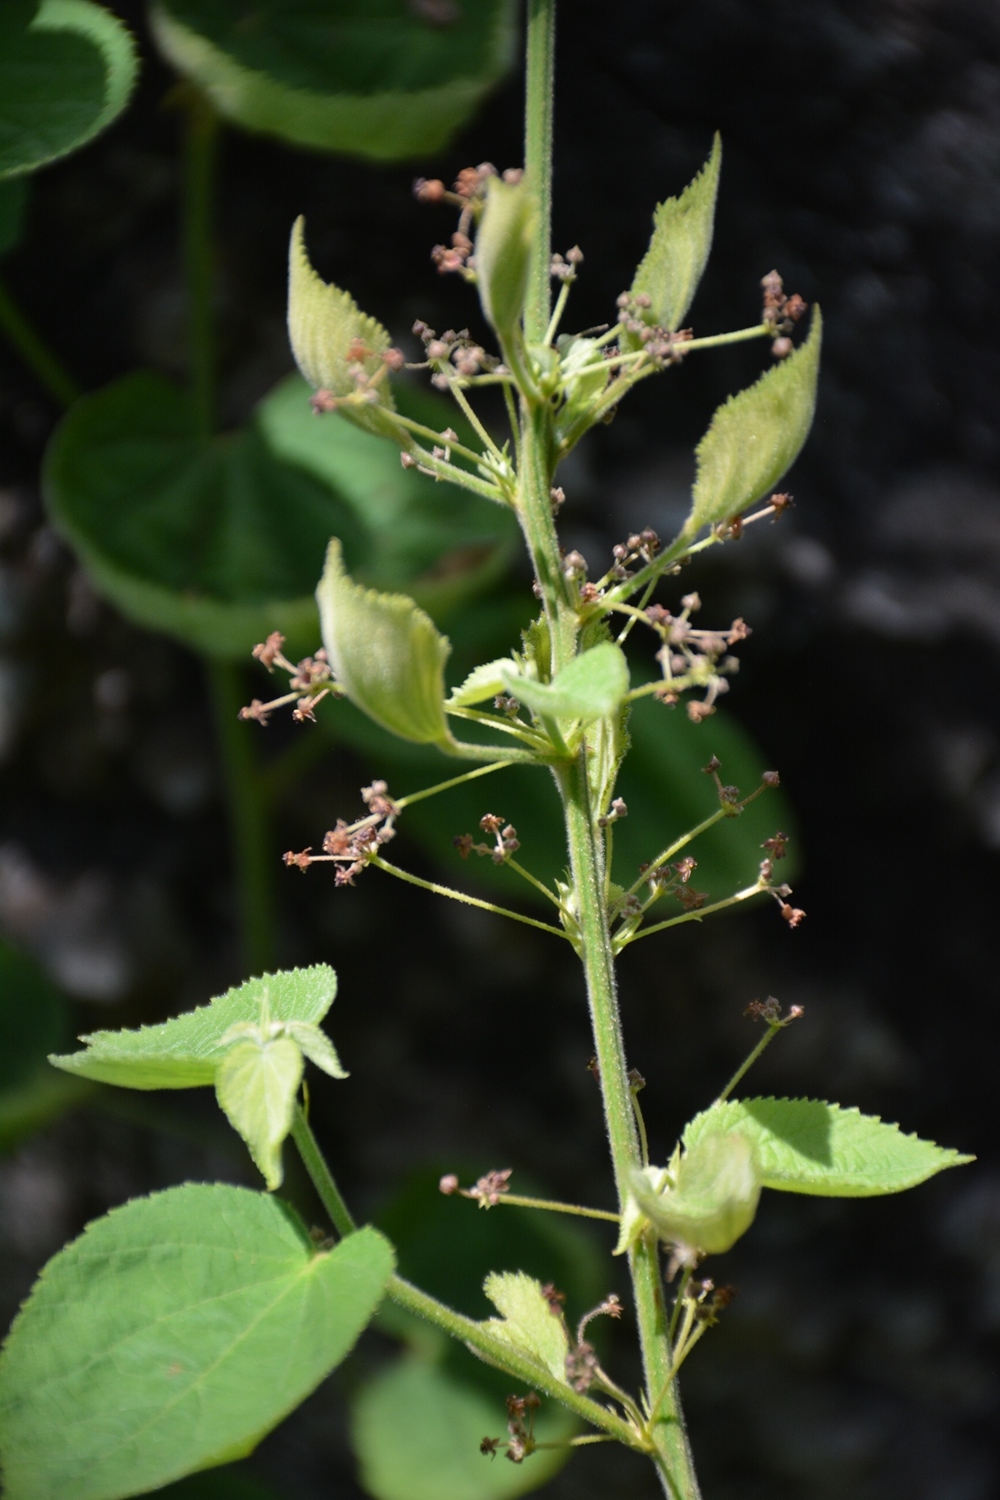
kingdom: Plantae
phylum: Tracheophyta
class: Magnoliopsida
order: Malvales
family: Malvaceae
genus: Ayenia
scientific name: Ayenia abutilifolia
